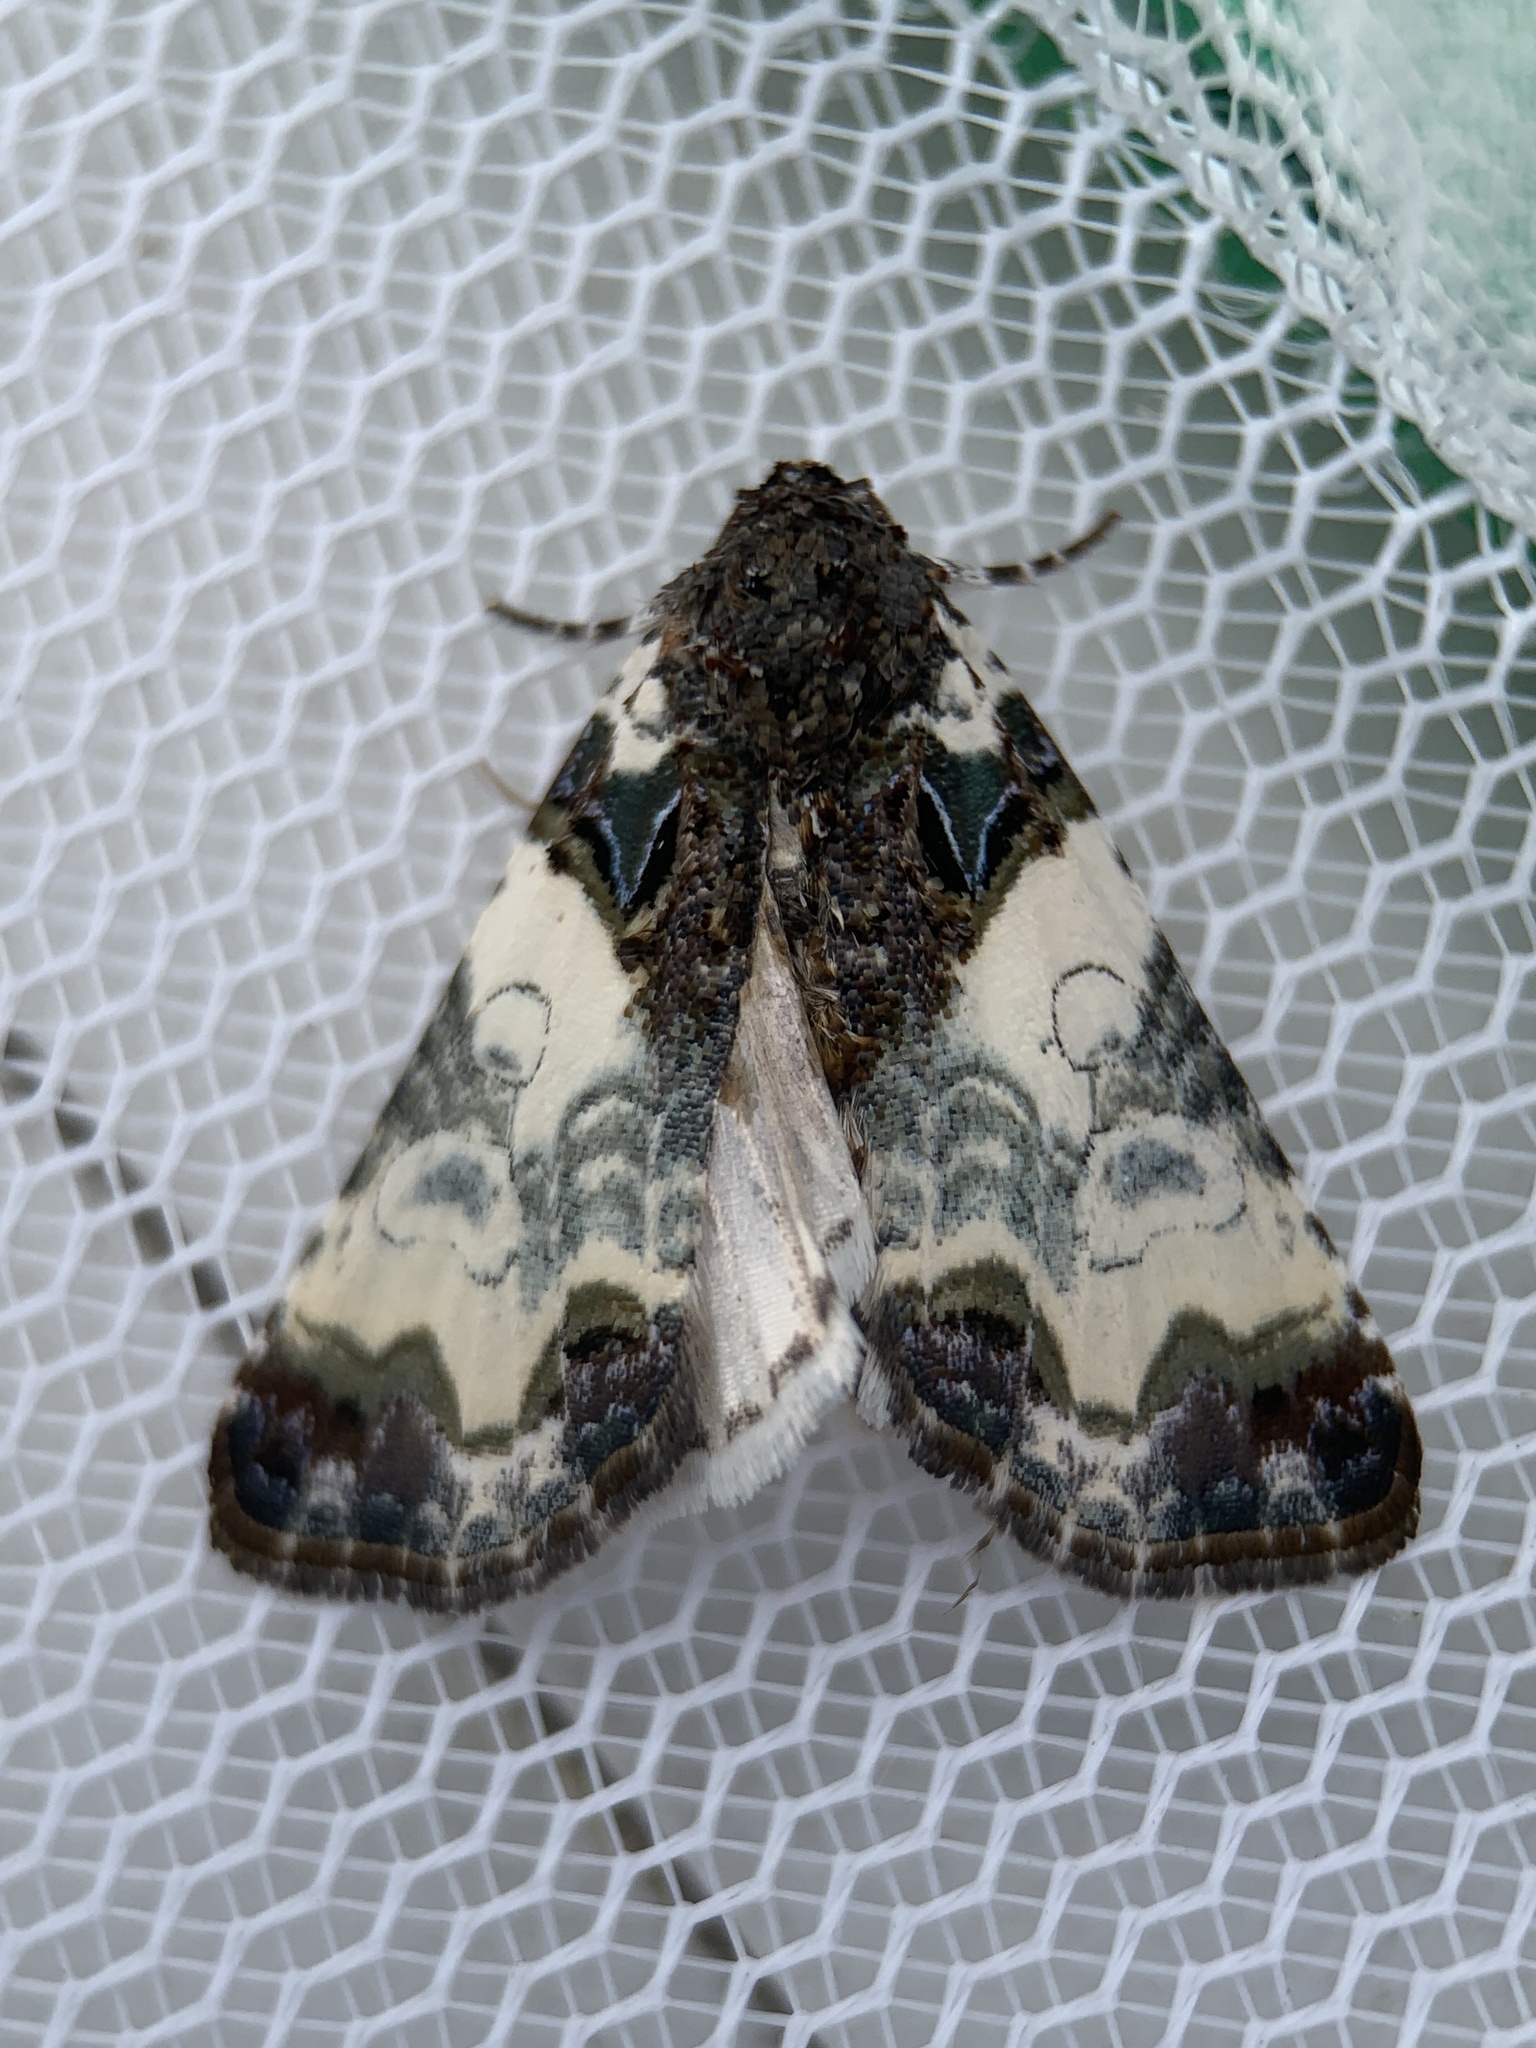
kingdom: Animalia
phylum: Arthropoda
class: Insecta
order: Lepidoptera
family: Noctuidae
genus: Cerma
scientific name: Cerma cerintha
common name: Tufted bird-dropping moth
